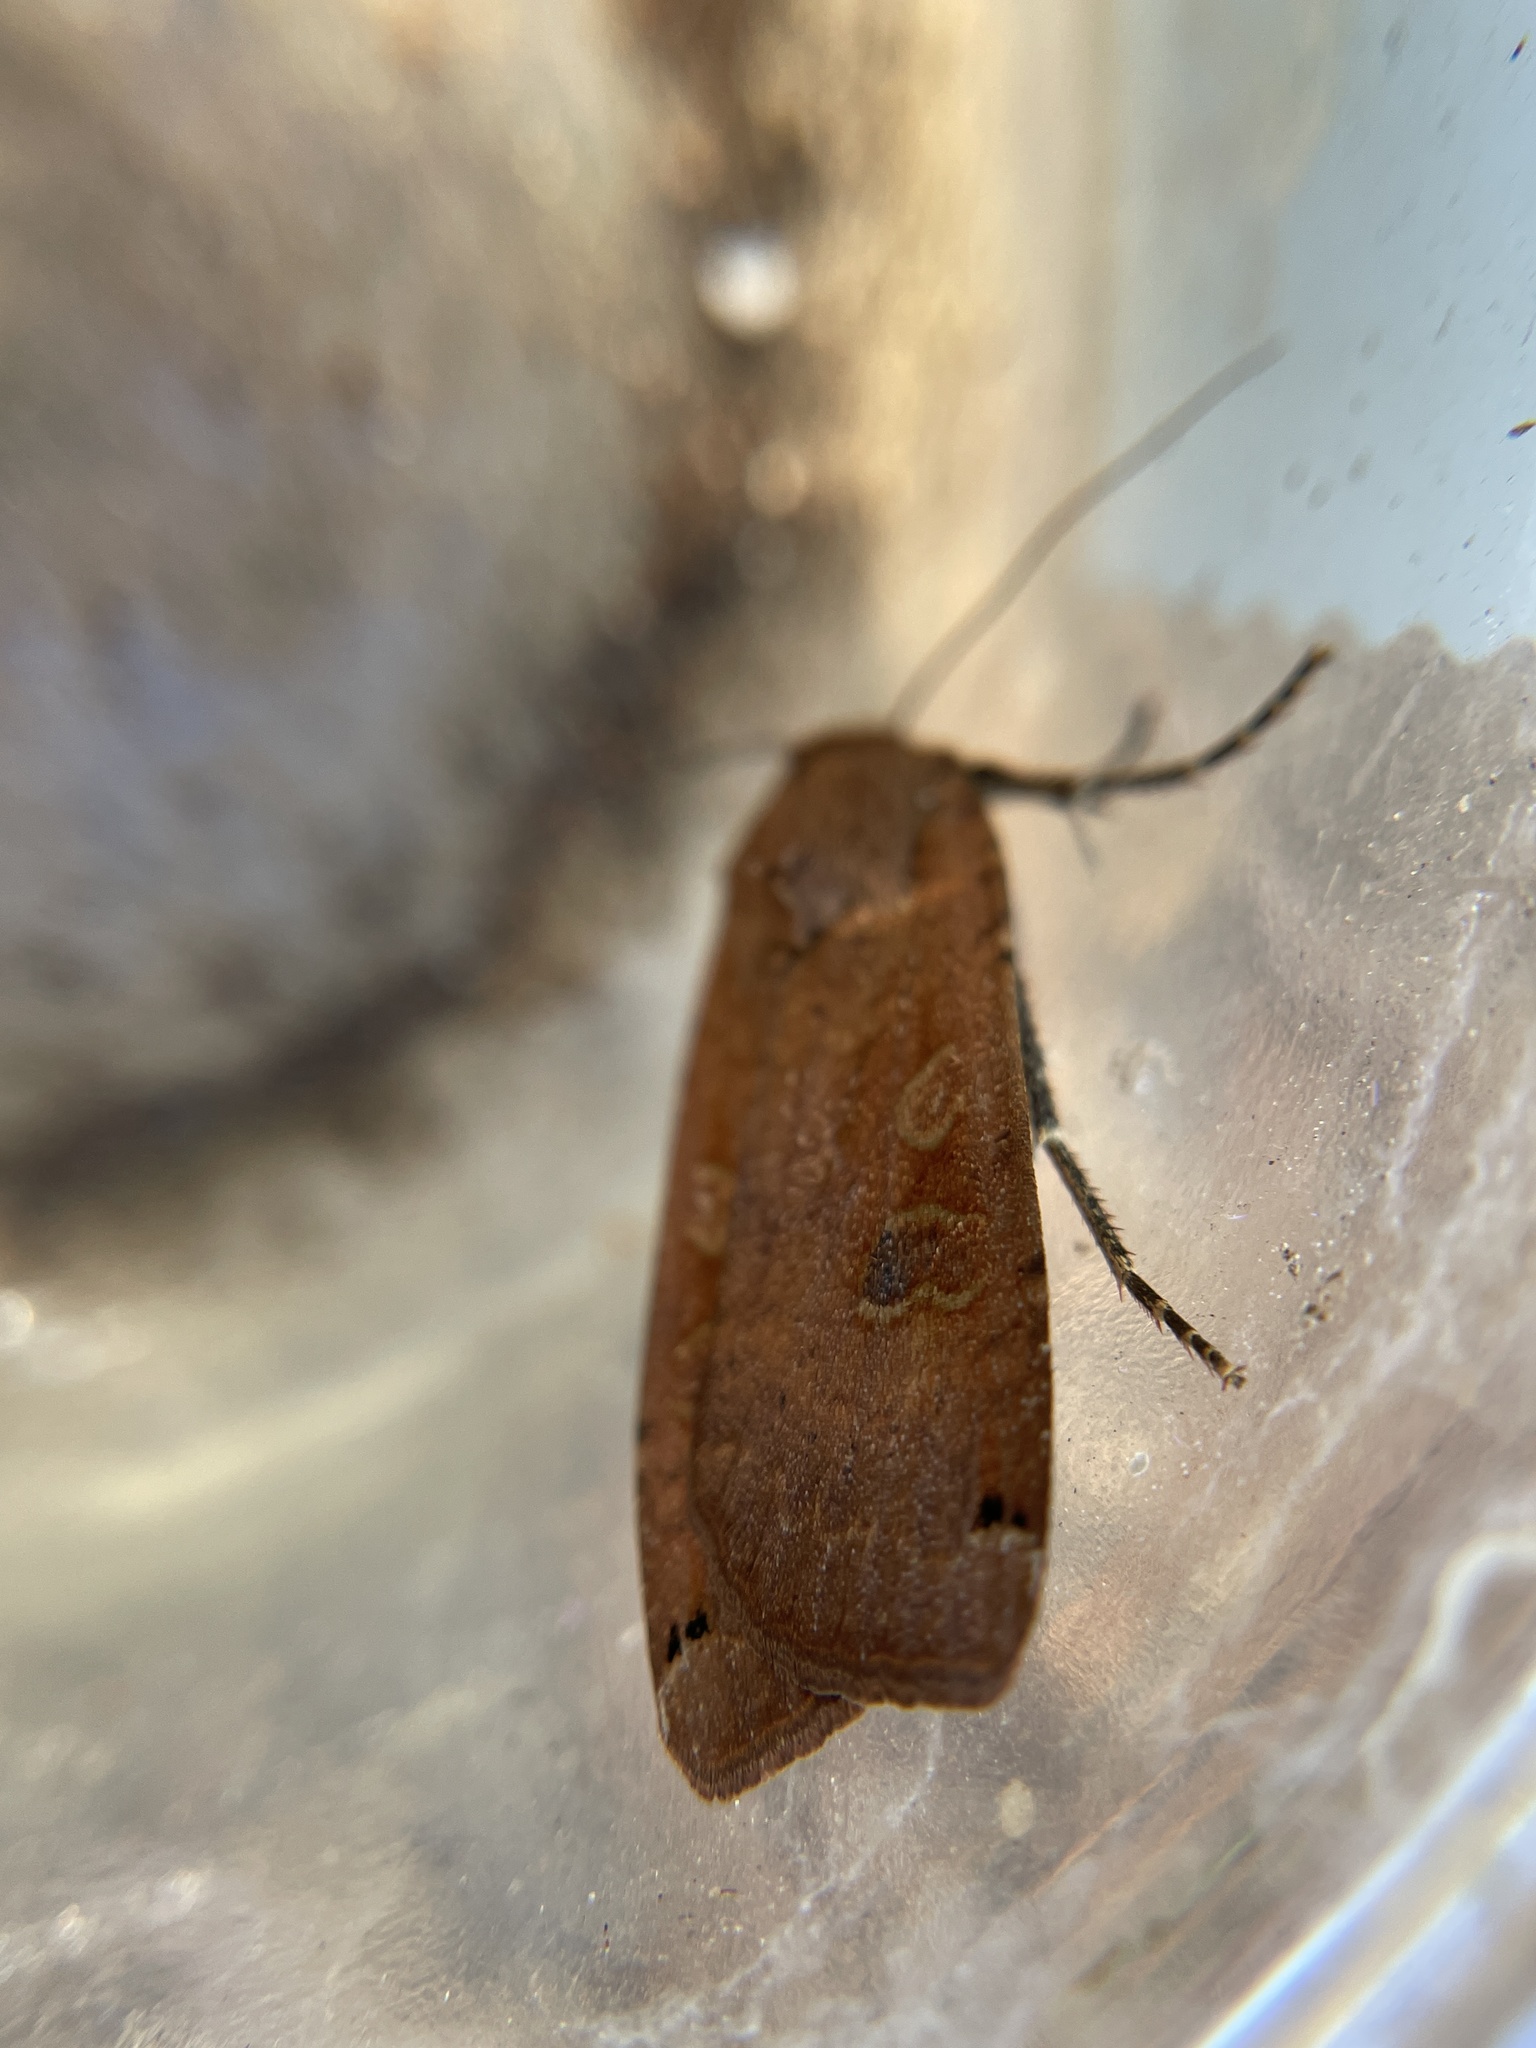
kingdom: Animalia
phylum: Arthropoda
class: Insecta
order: Lepidoptera
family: Noctuidae
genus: Noctua
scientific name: Noctua pronuba
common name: Large yellow underwing
